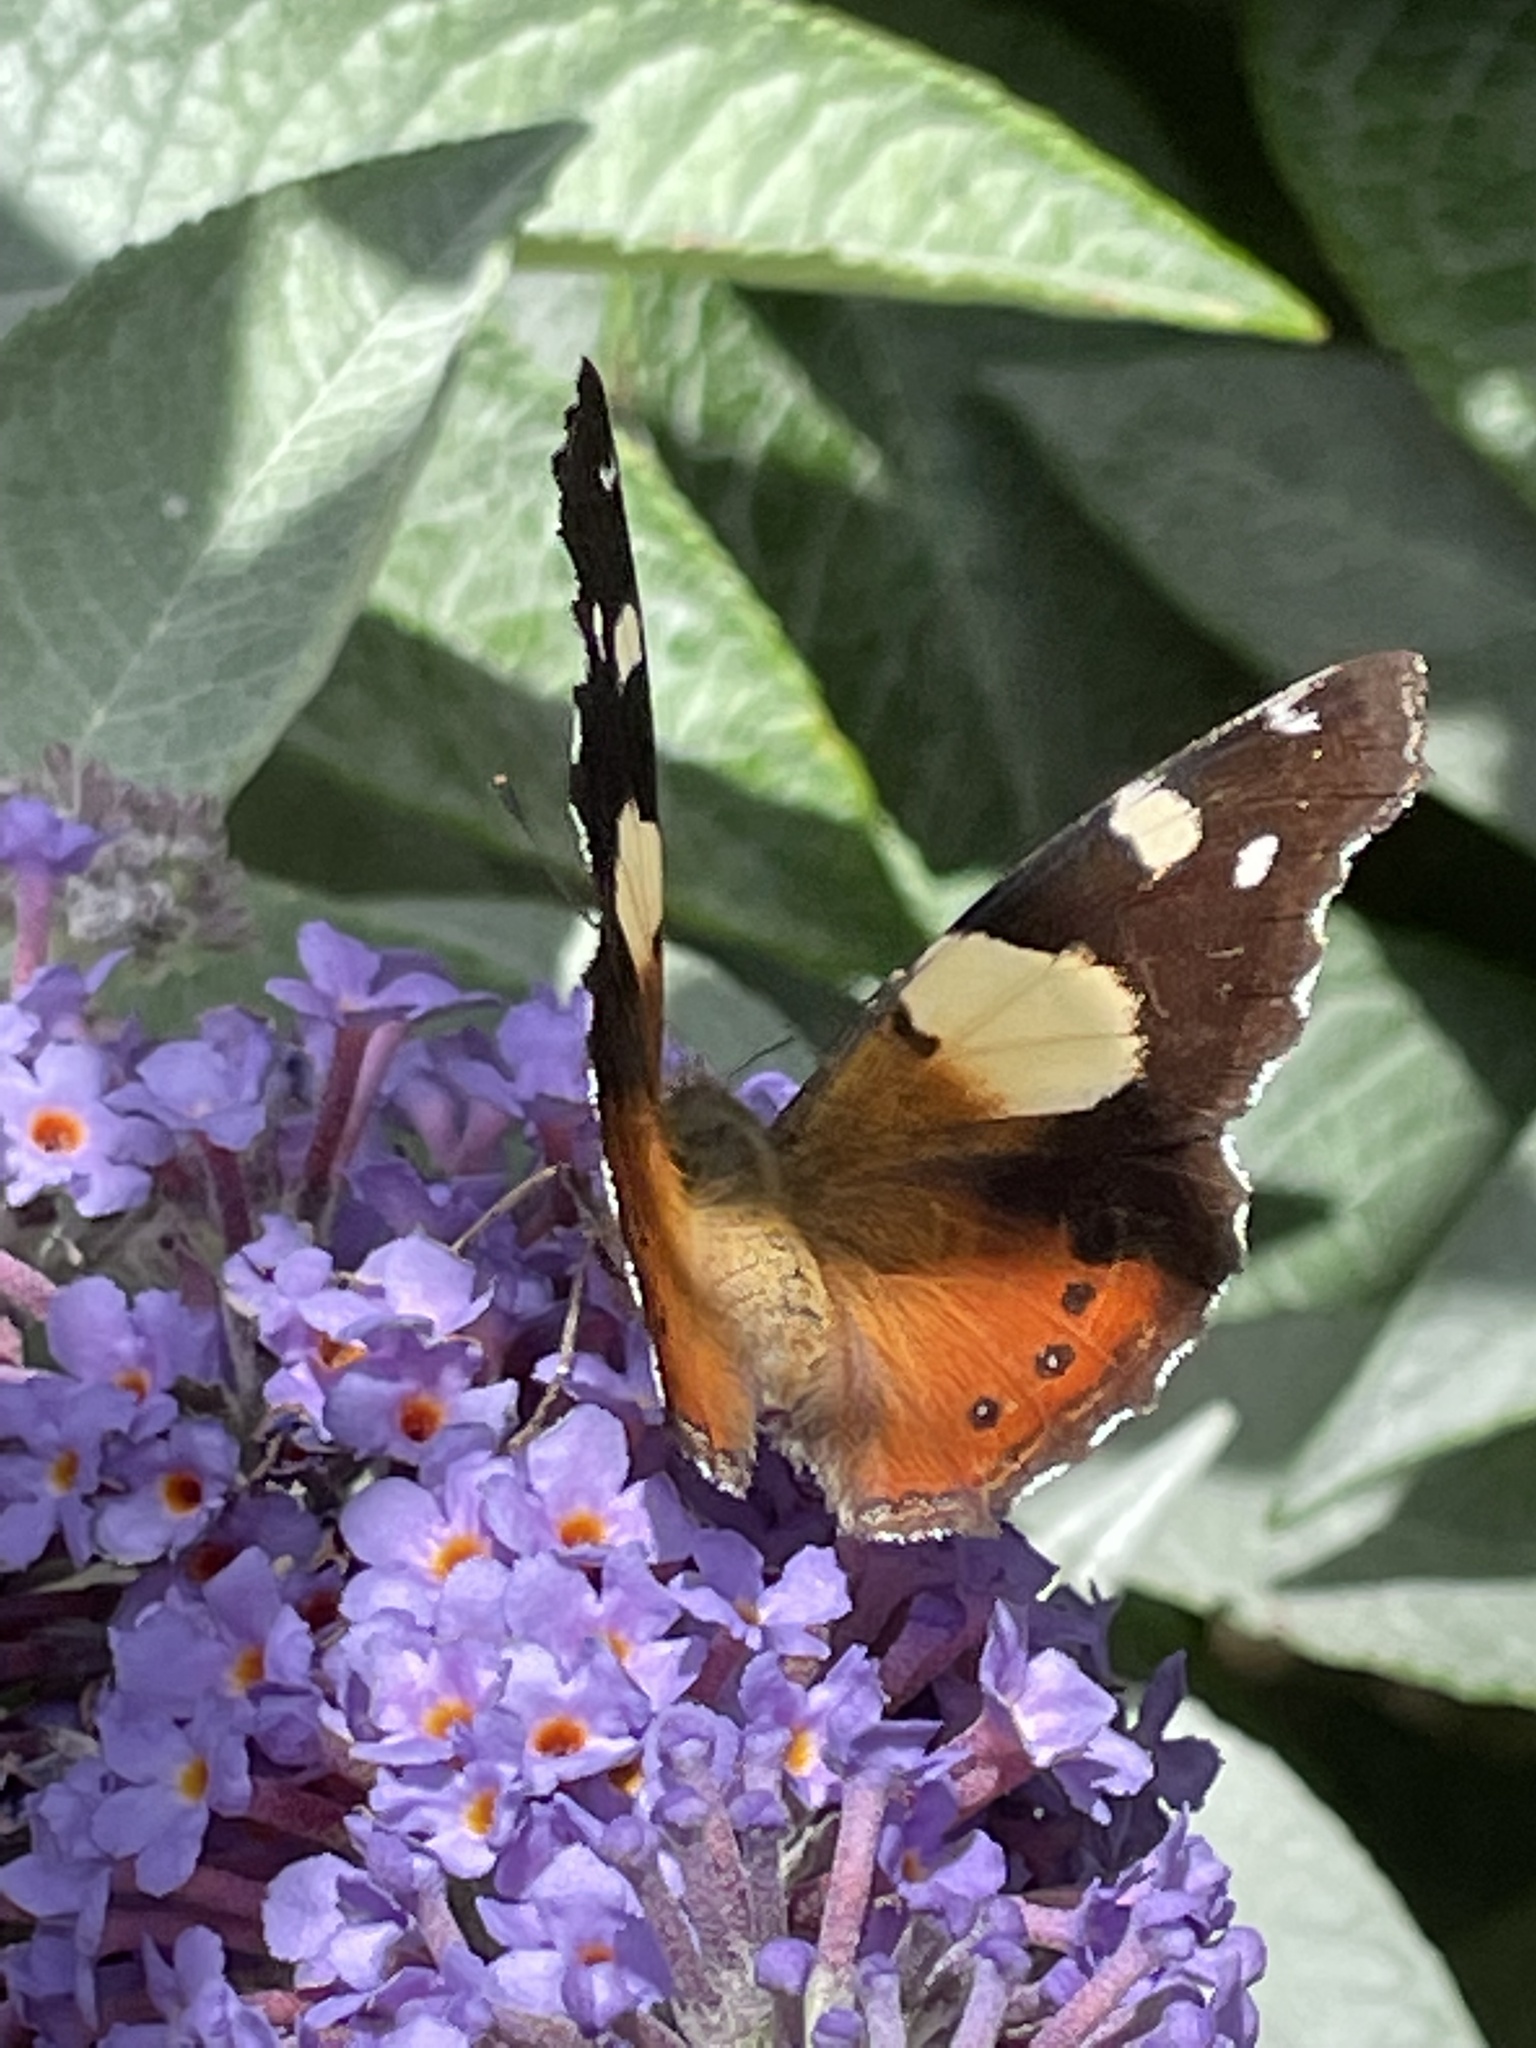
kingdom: Animalia
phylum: Arthropoda
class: Insecta
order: Lepidoptera
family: Nymphalidae
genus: Vanessa
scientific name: Vanessa itea
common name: Yellow admiral
